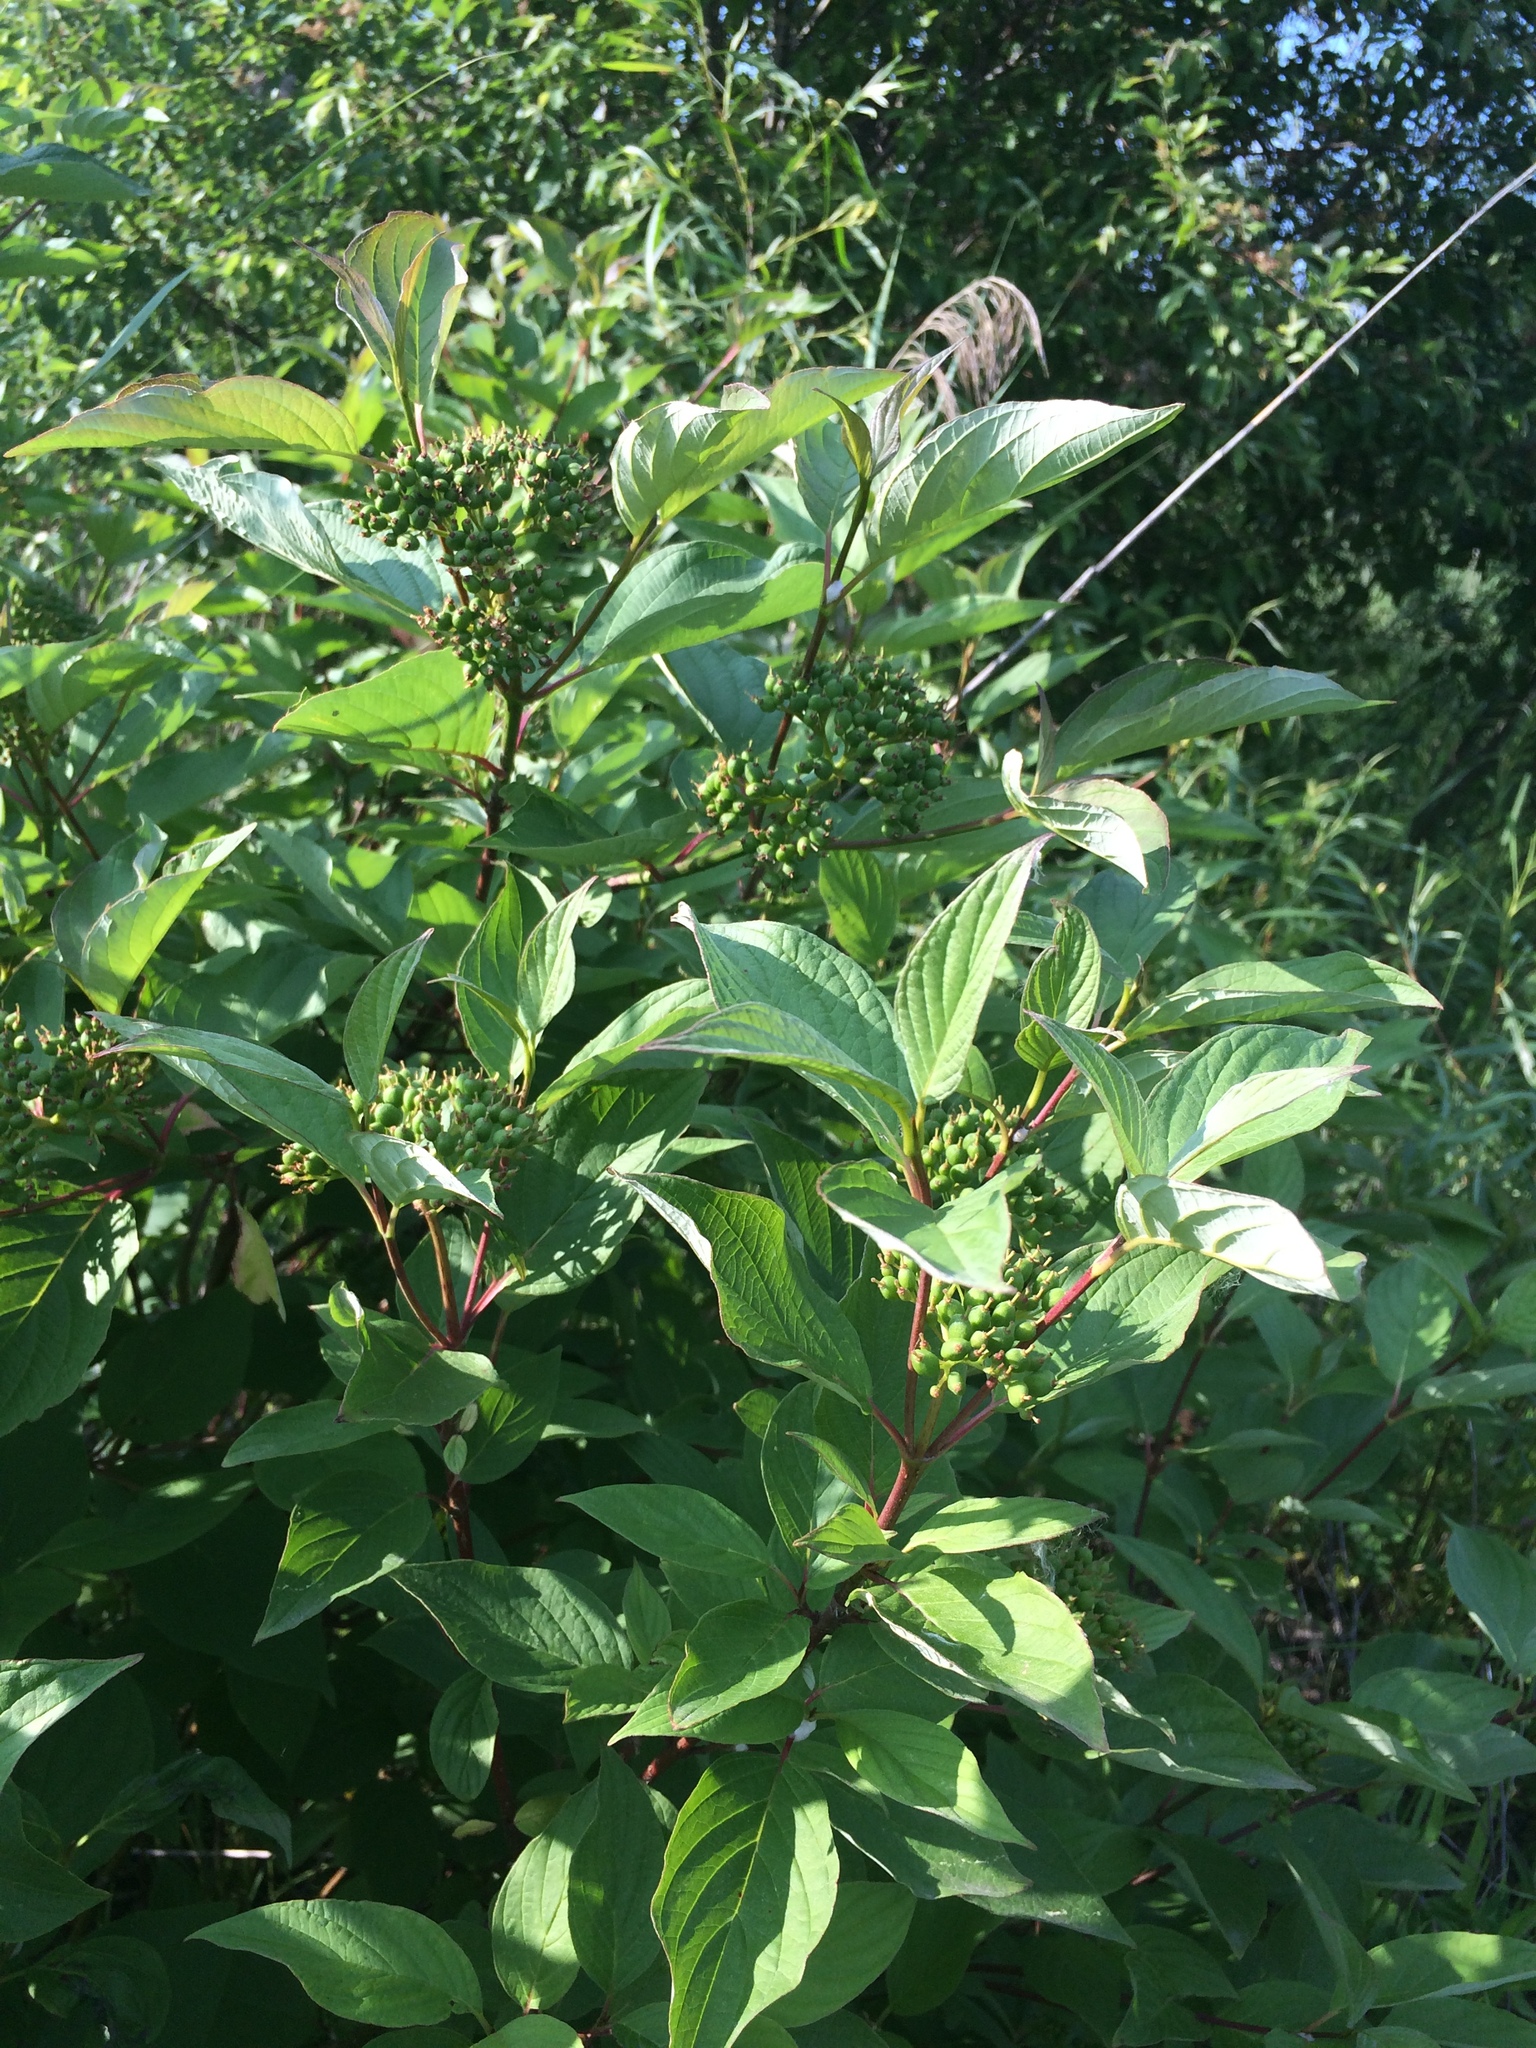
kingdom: Plantae
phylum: Tracheophyta
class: Magnoliopsida
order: Cornales
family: Cornaceae
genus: Cornus
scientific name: Cornus sericea
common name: Red-osier dogwood
